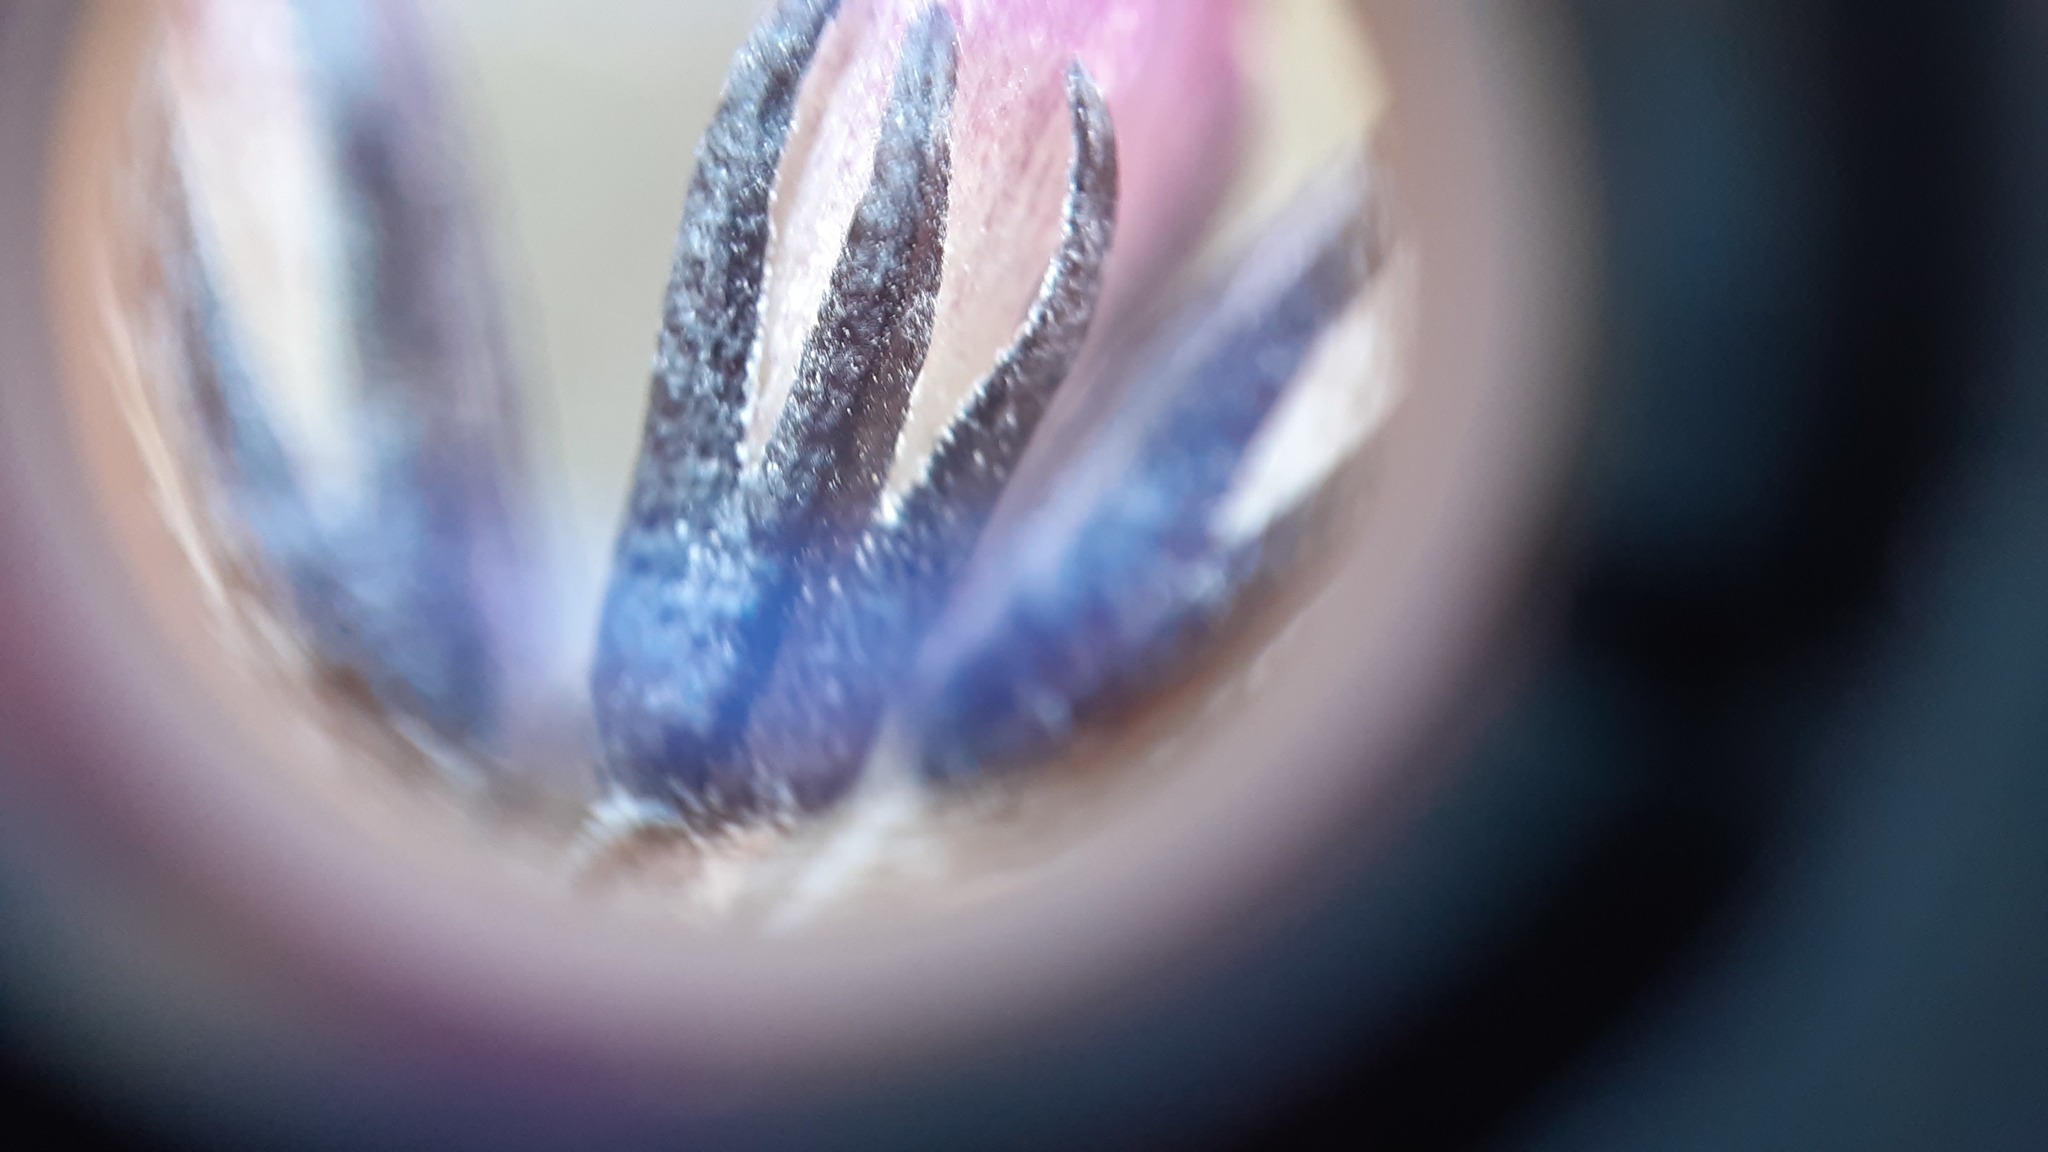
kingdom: Plantae
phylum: Tracheophyta
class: Magnoliopsida
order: Ericales
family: Primulaceae
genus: Primula
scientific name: Primula pumila
